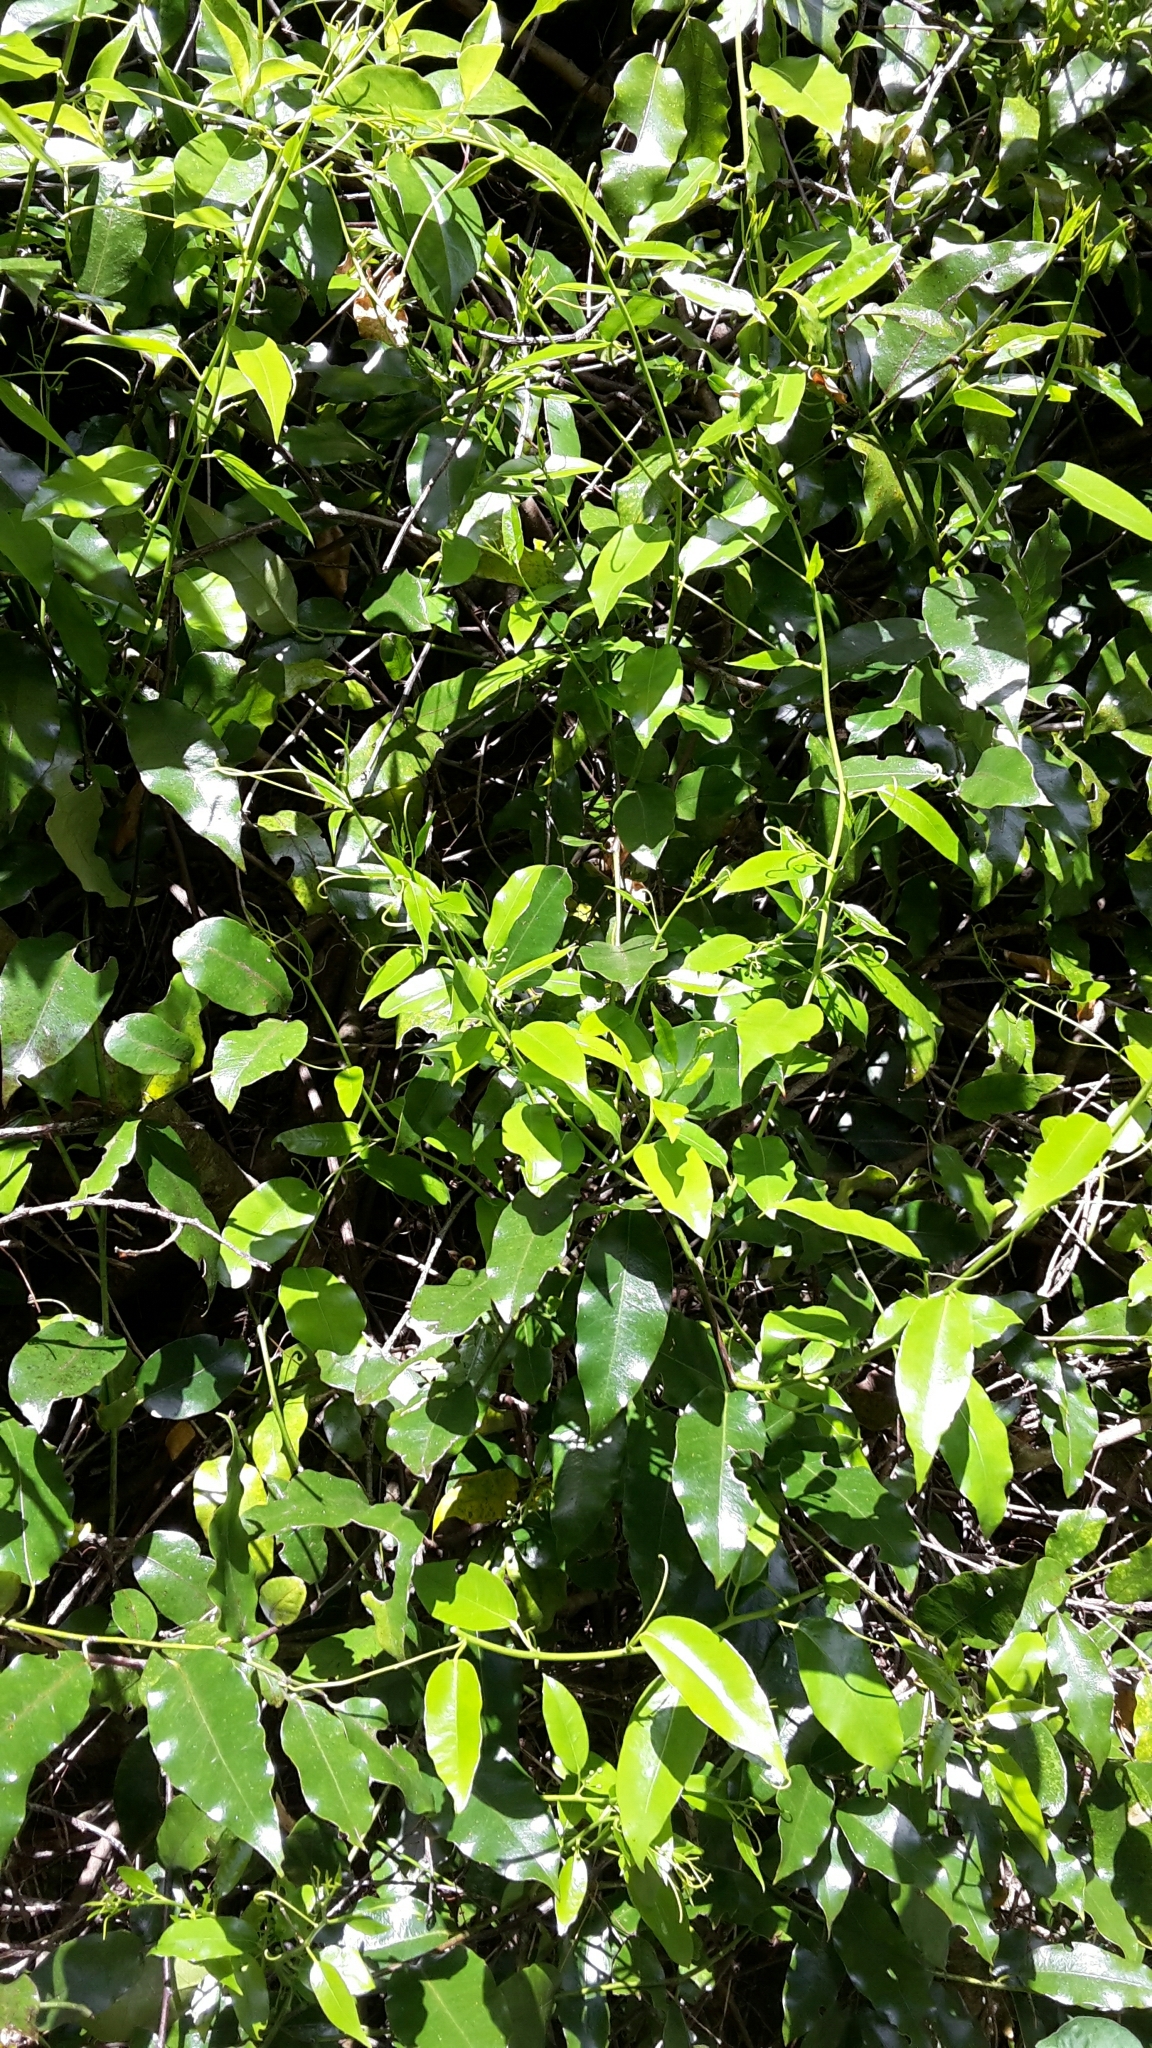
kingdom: Plantae
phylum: Tracheophyta
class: Magnoliopsida
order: Malpighiales
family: Passifloraceae
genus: Passiflora
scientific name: Passiflora tetrandra
